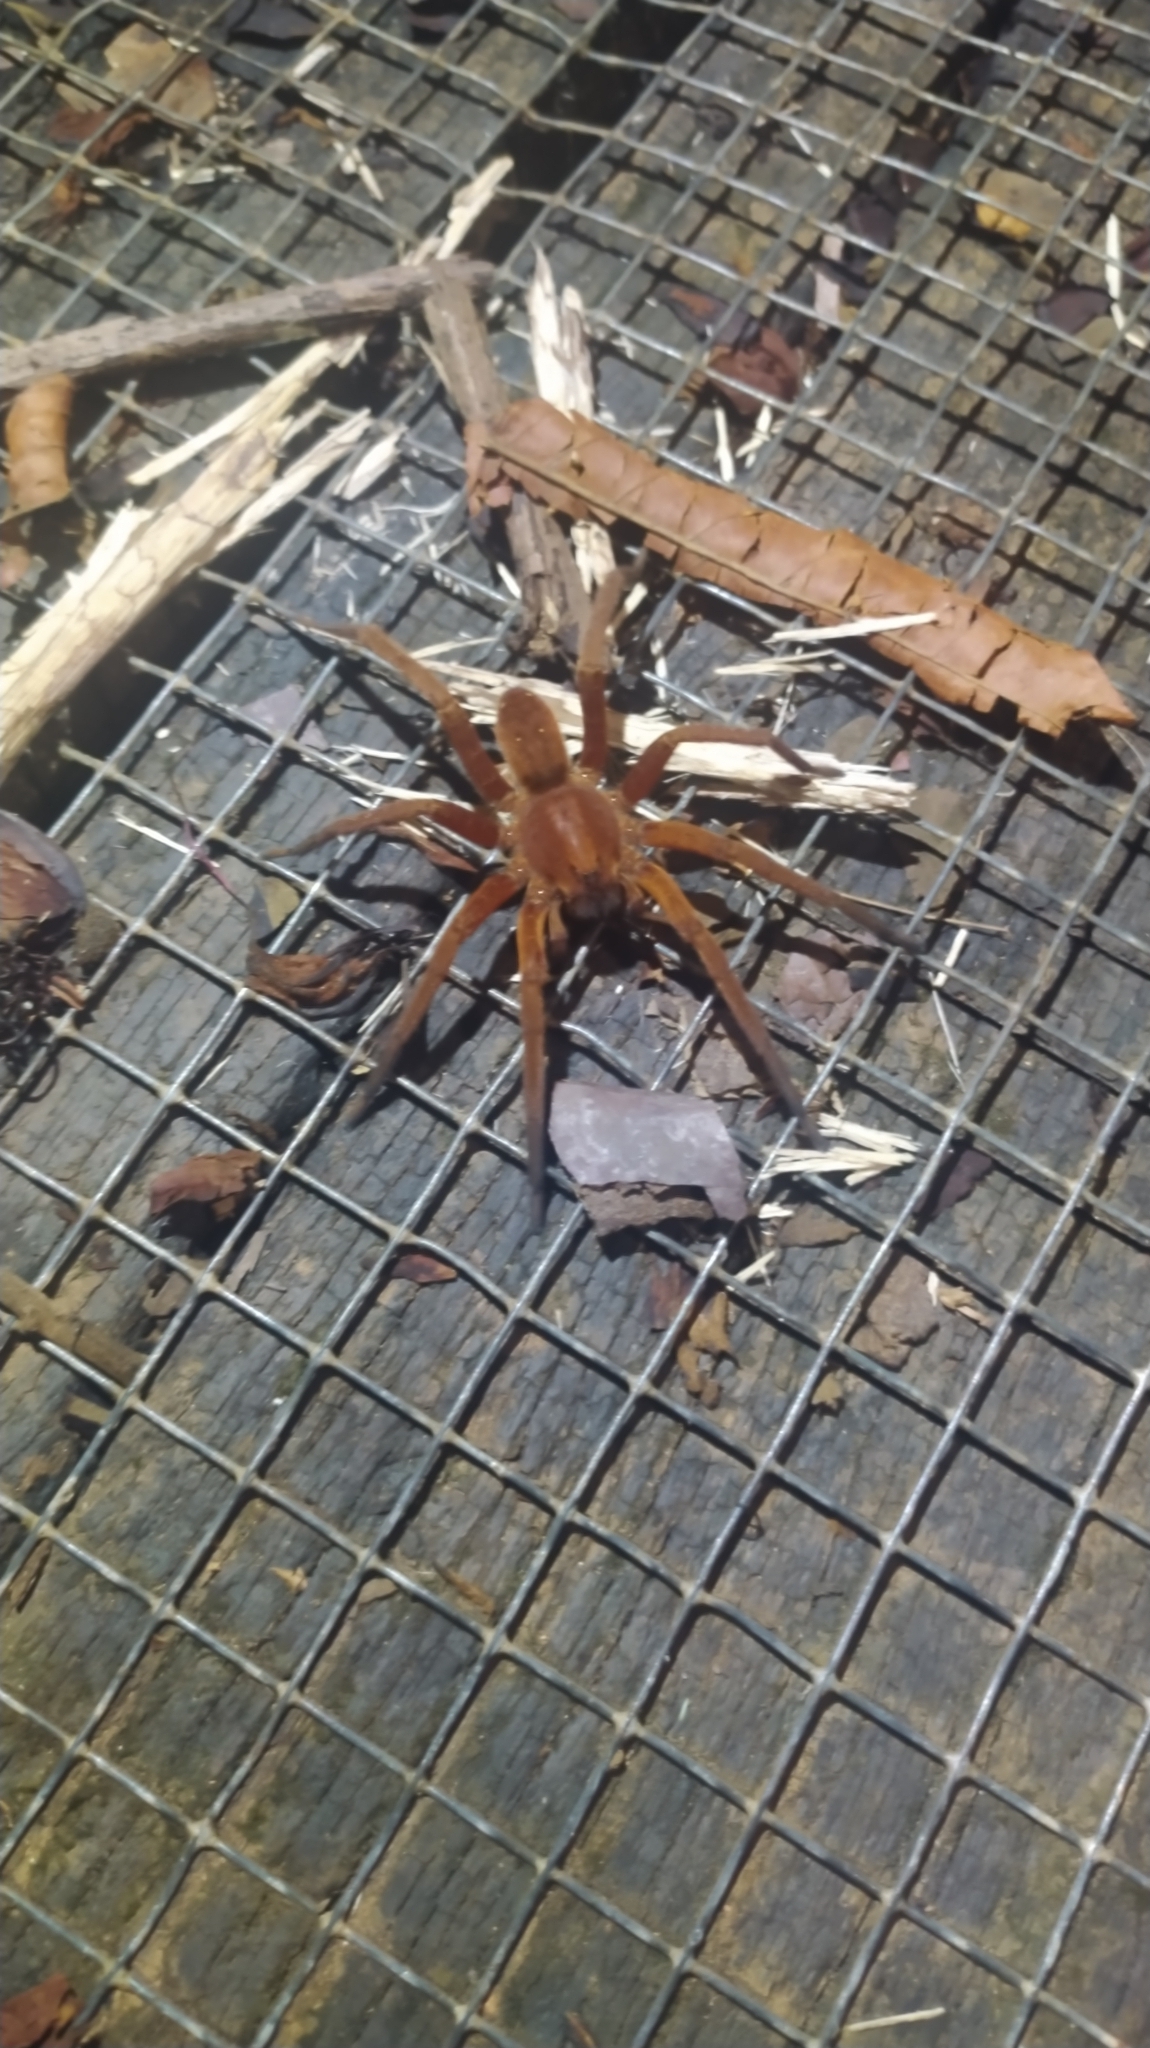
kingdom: Animalia
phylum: Arthropoda
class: Arachnida
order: Araneae
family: Ctenidae
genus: Ancylometes
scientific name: Ancylometes rufus
